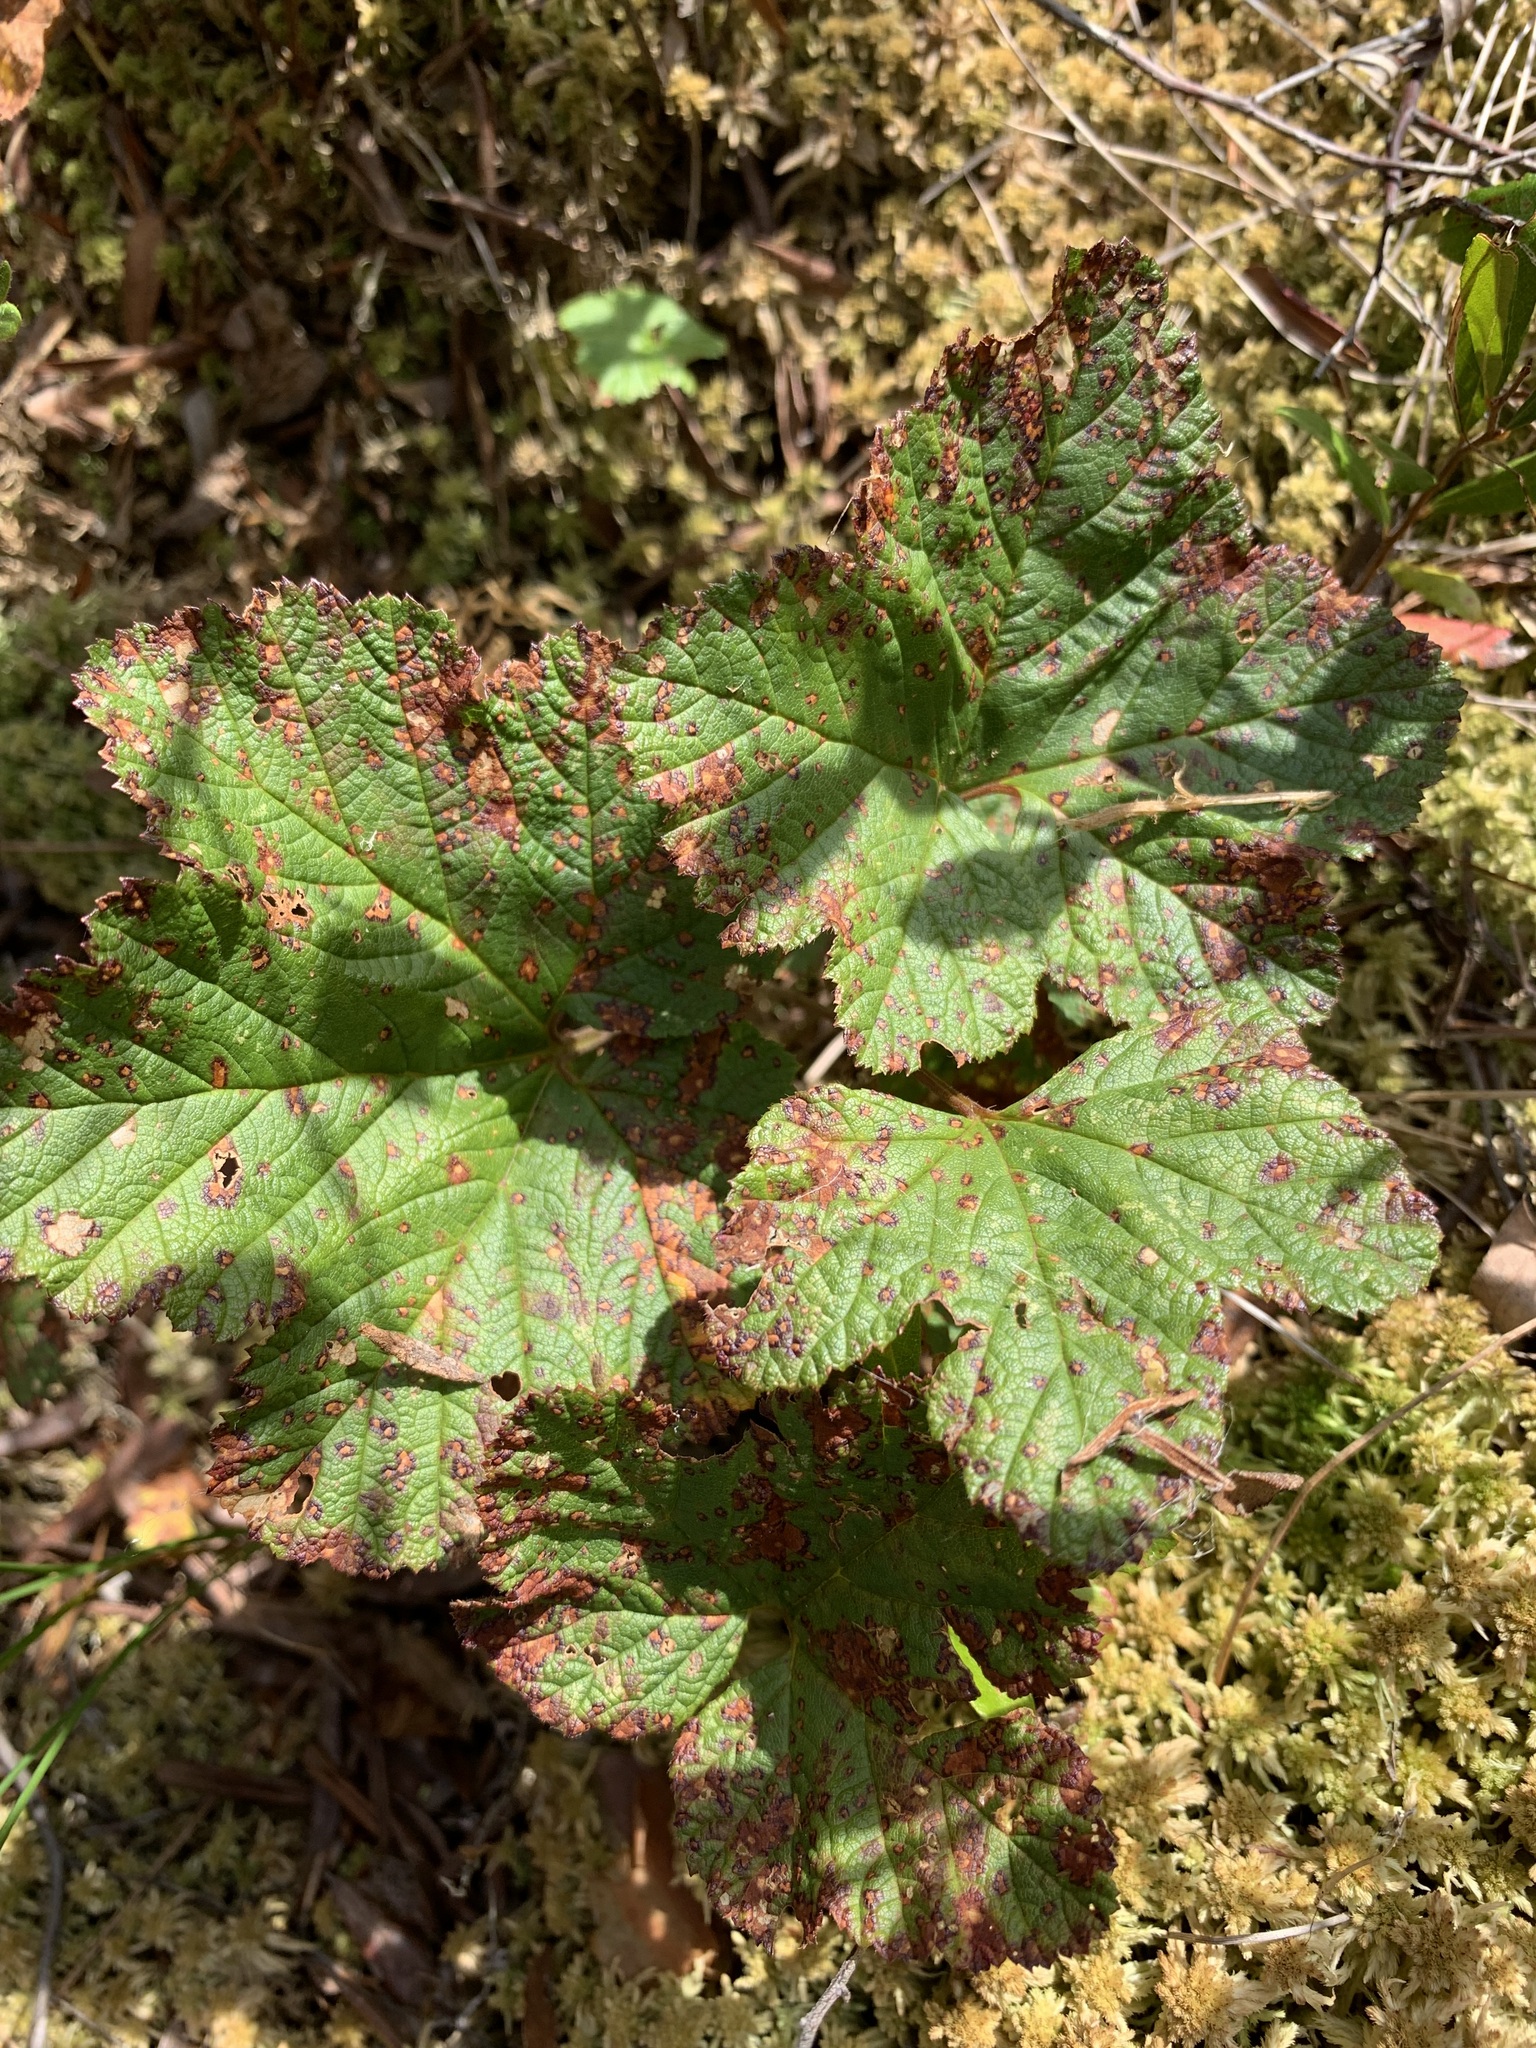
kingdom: Plantae
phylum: Tracheophyta
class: Magnoliopsida
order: Rosales
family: Rosaceae
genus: Rubus
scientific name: Rubus chamaemorus
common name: Cloudberry
